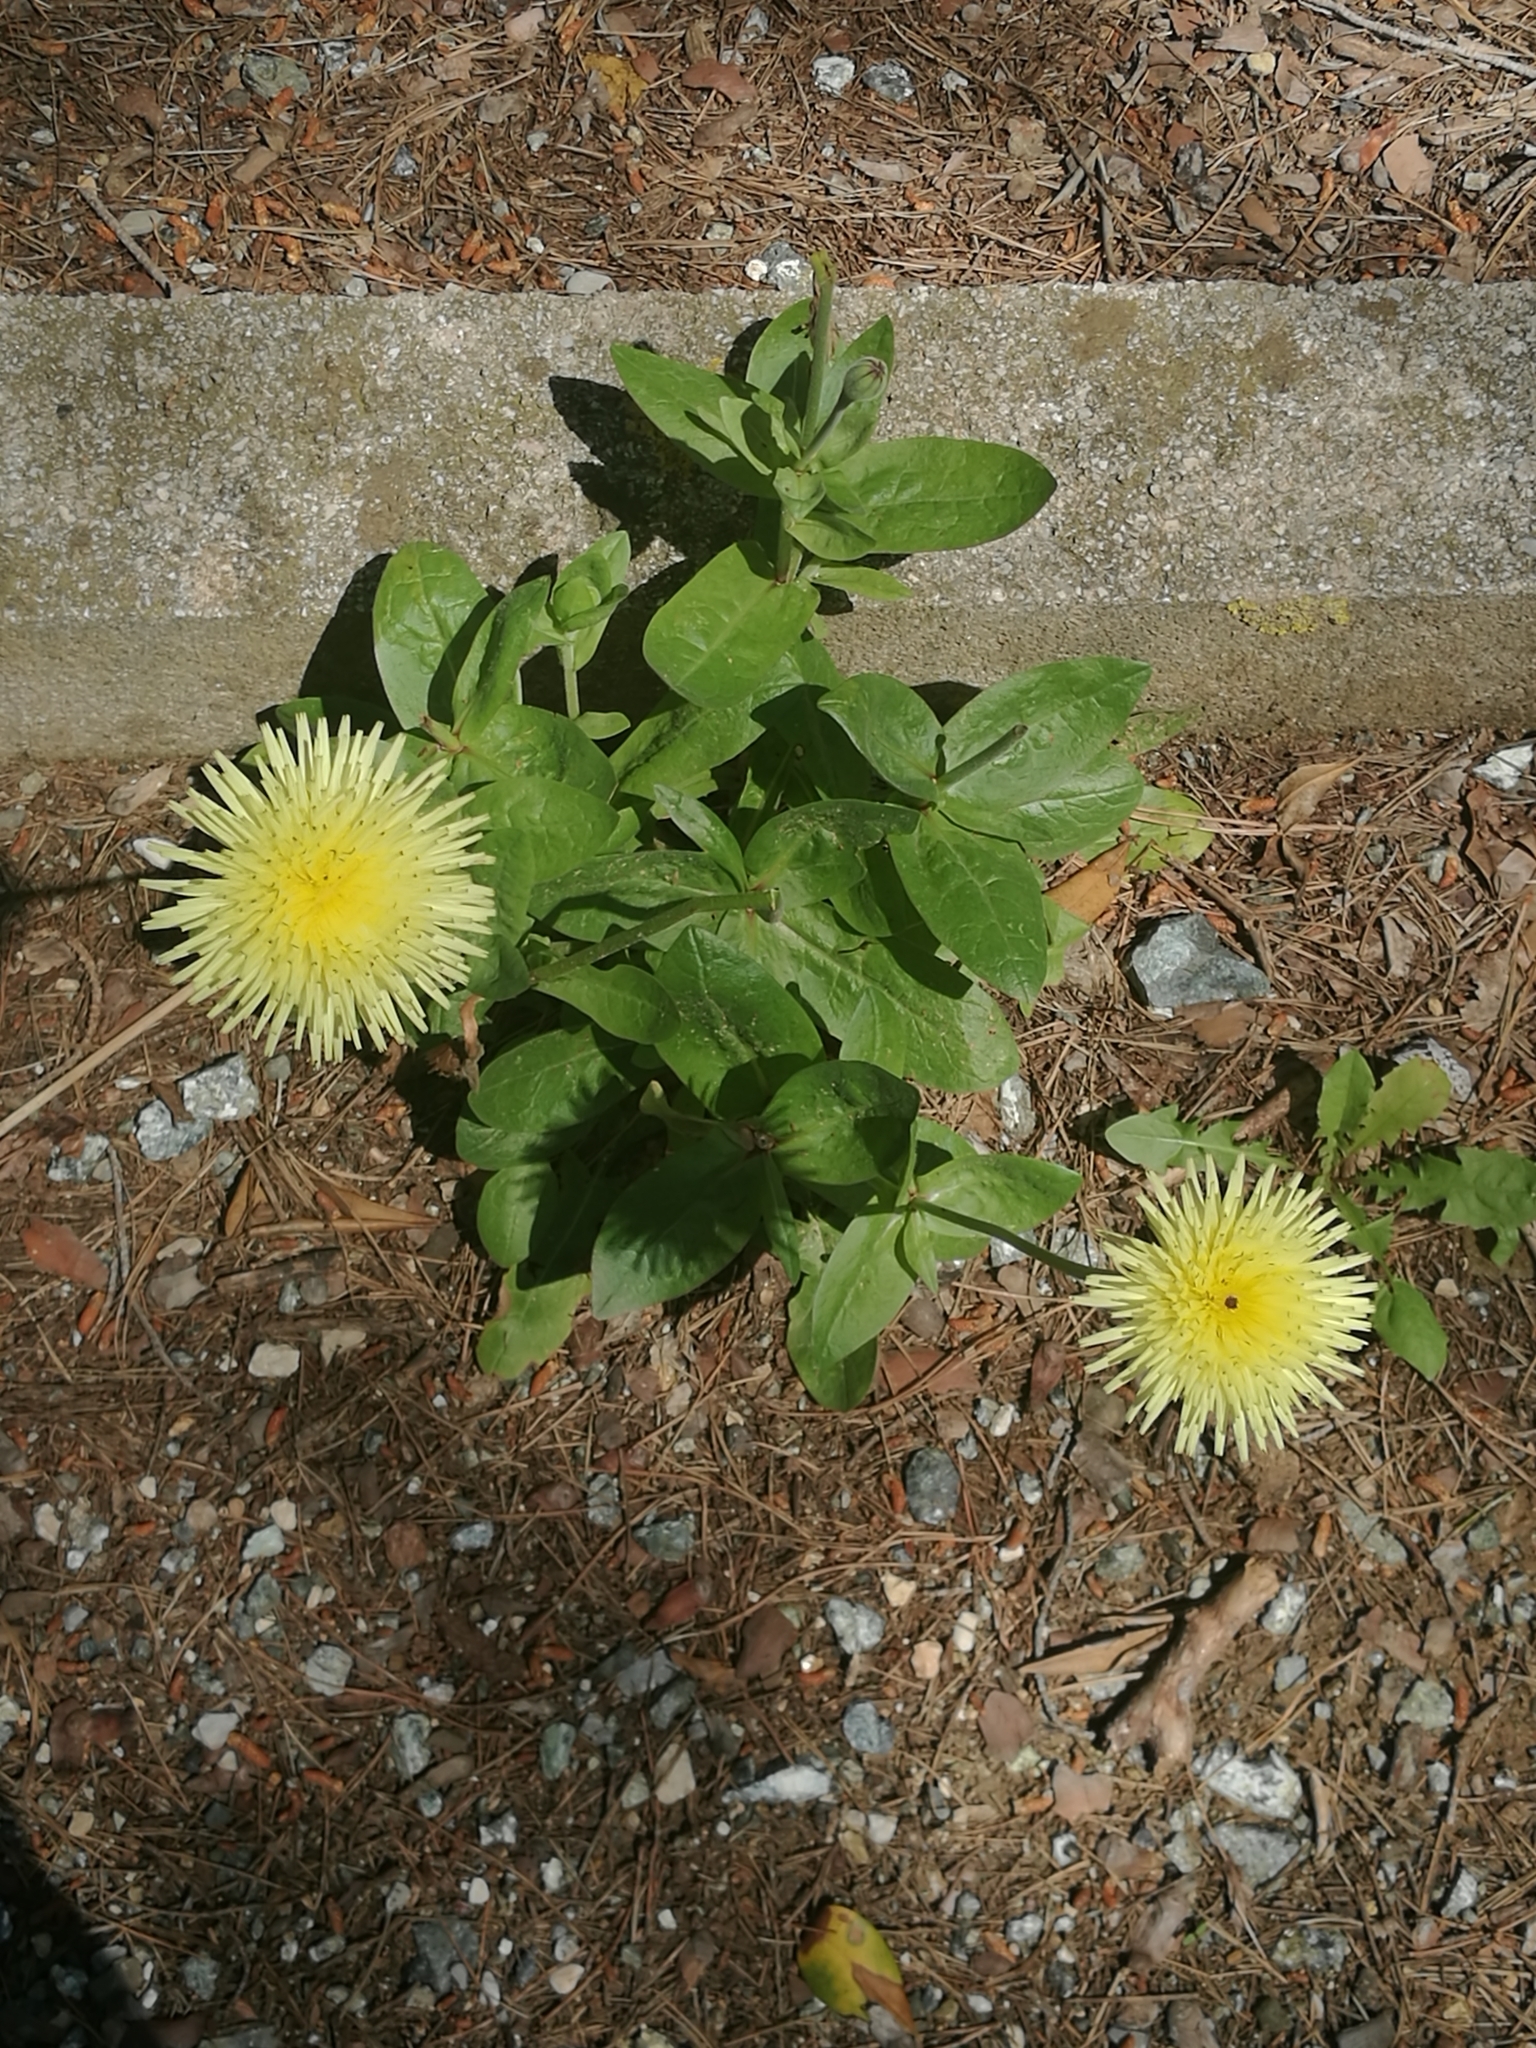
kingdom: Plantae
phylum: Tracheophyta
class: Magnoliopsida
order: Asterales
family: Asteraceae
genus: Urospermum
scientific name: Urospermum dalechampii
